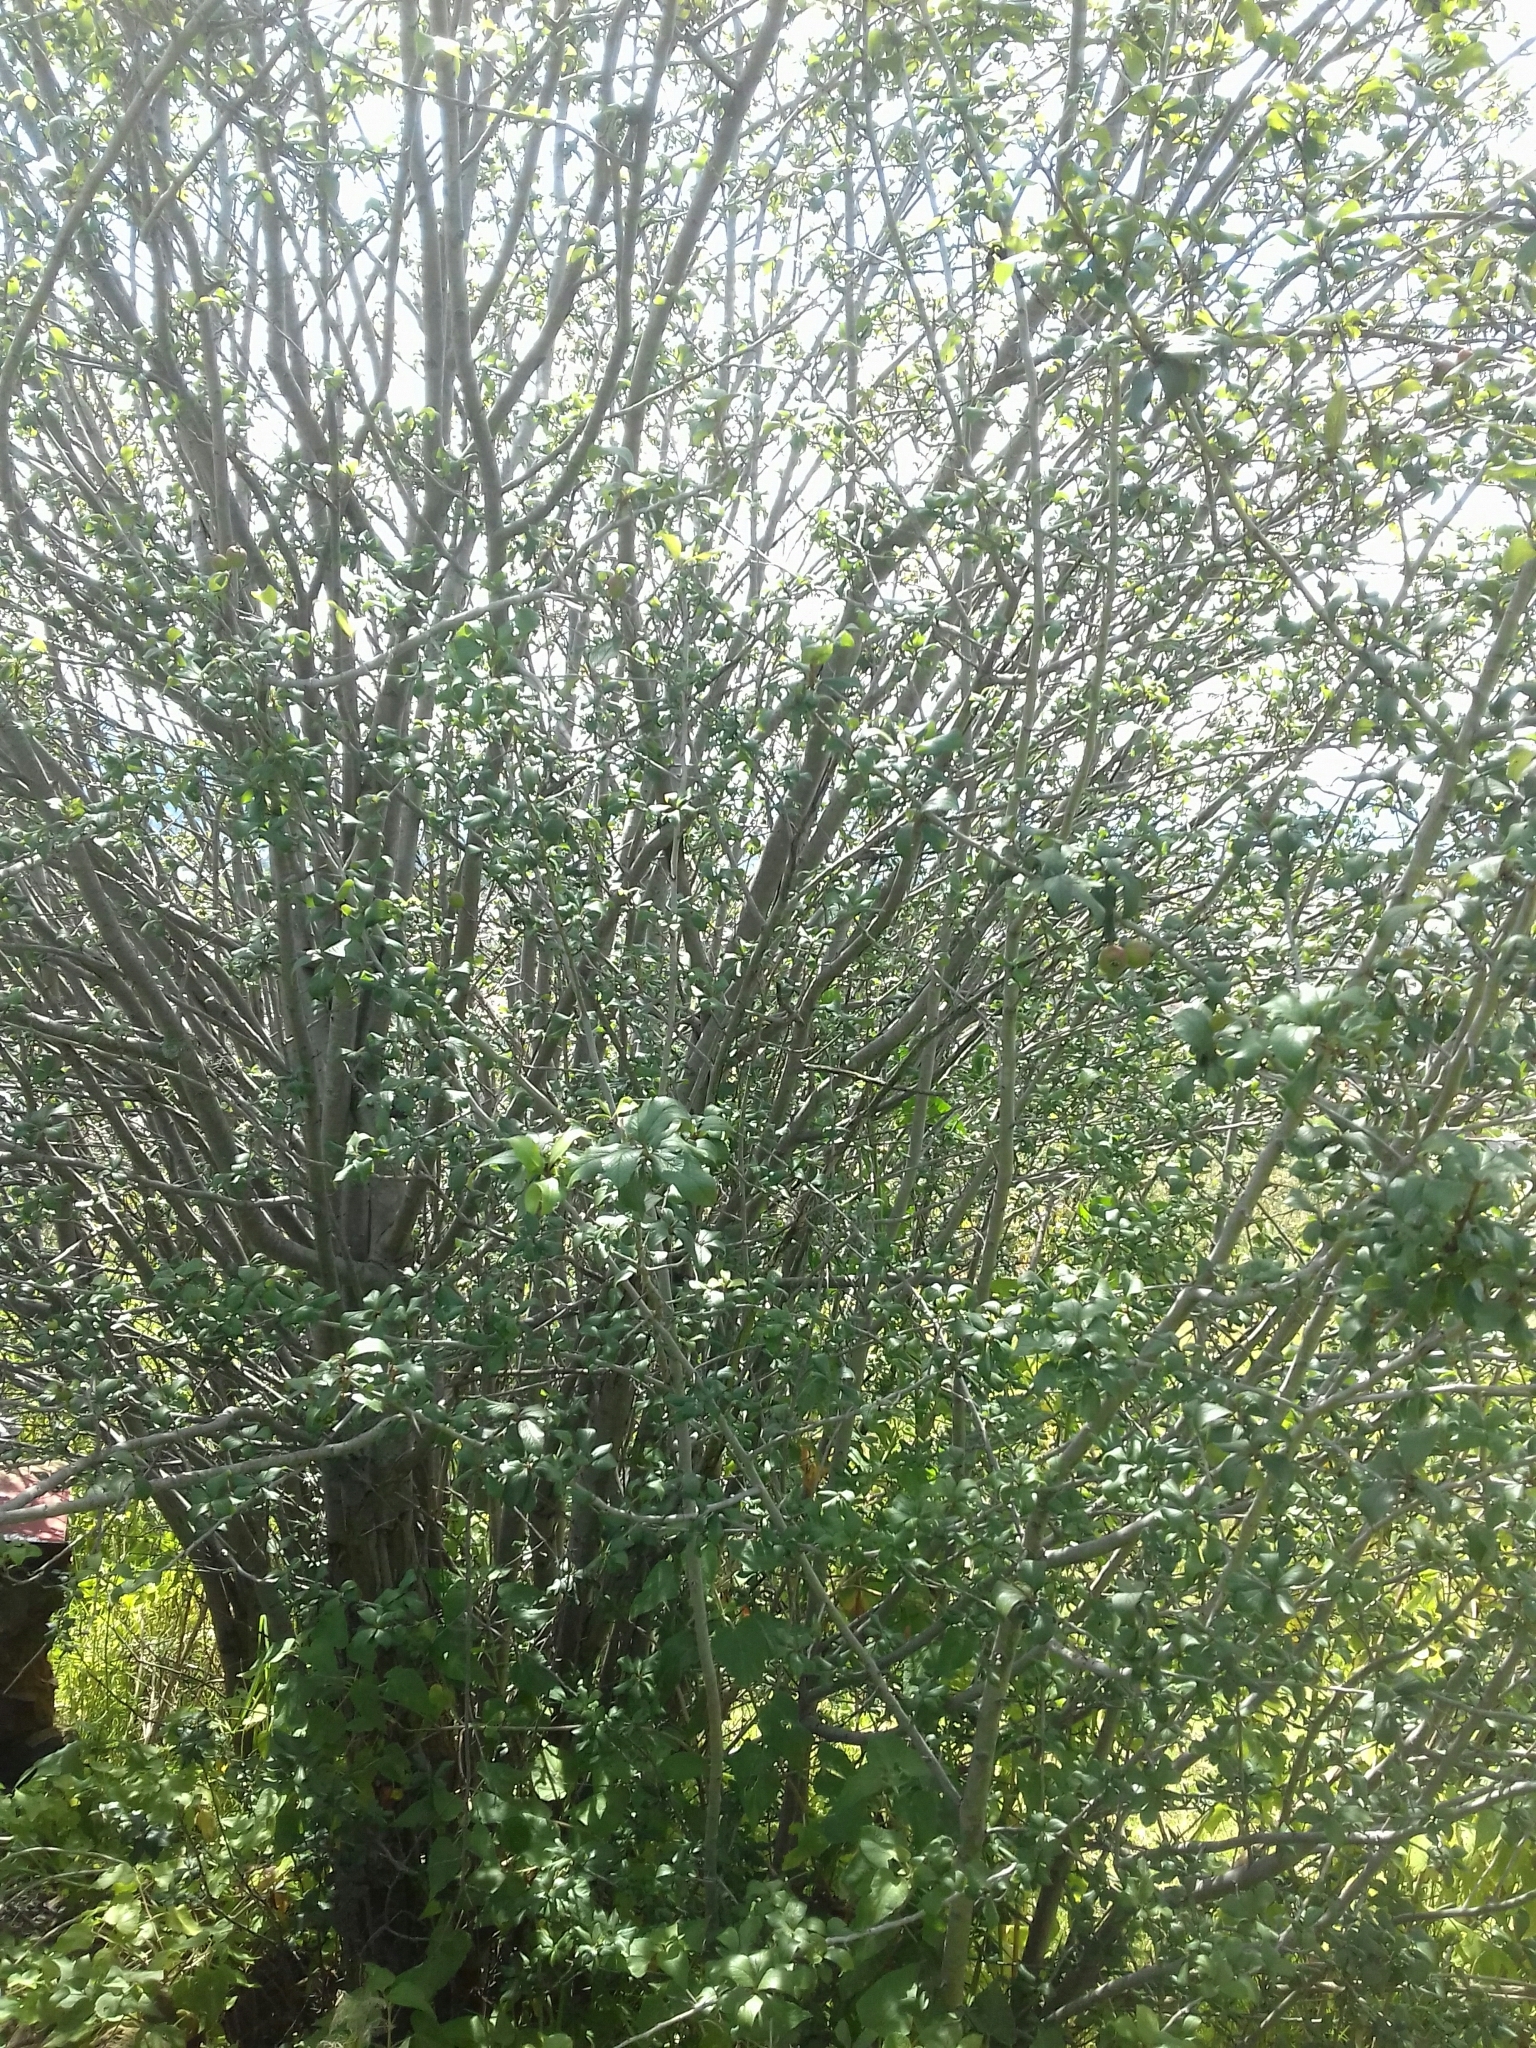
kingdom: Plantae
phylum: Tracheophyta
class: Magnoliopsida
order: Rosales
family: Rosaceae
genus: Crataegus
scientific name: Crataegus mexicana
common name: Mexican hawthorn
